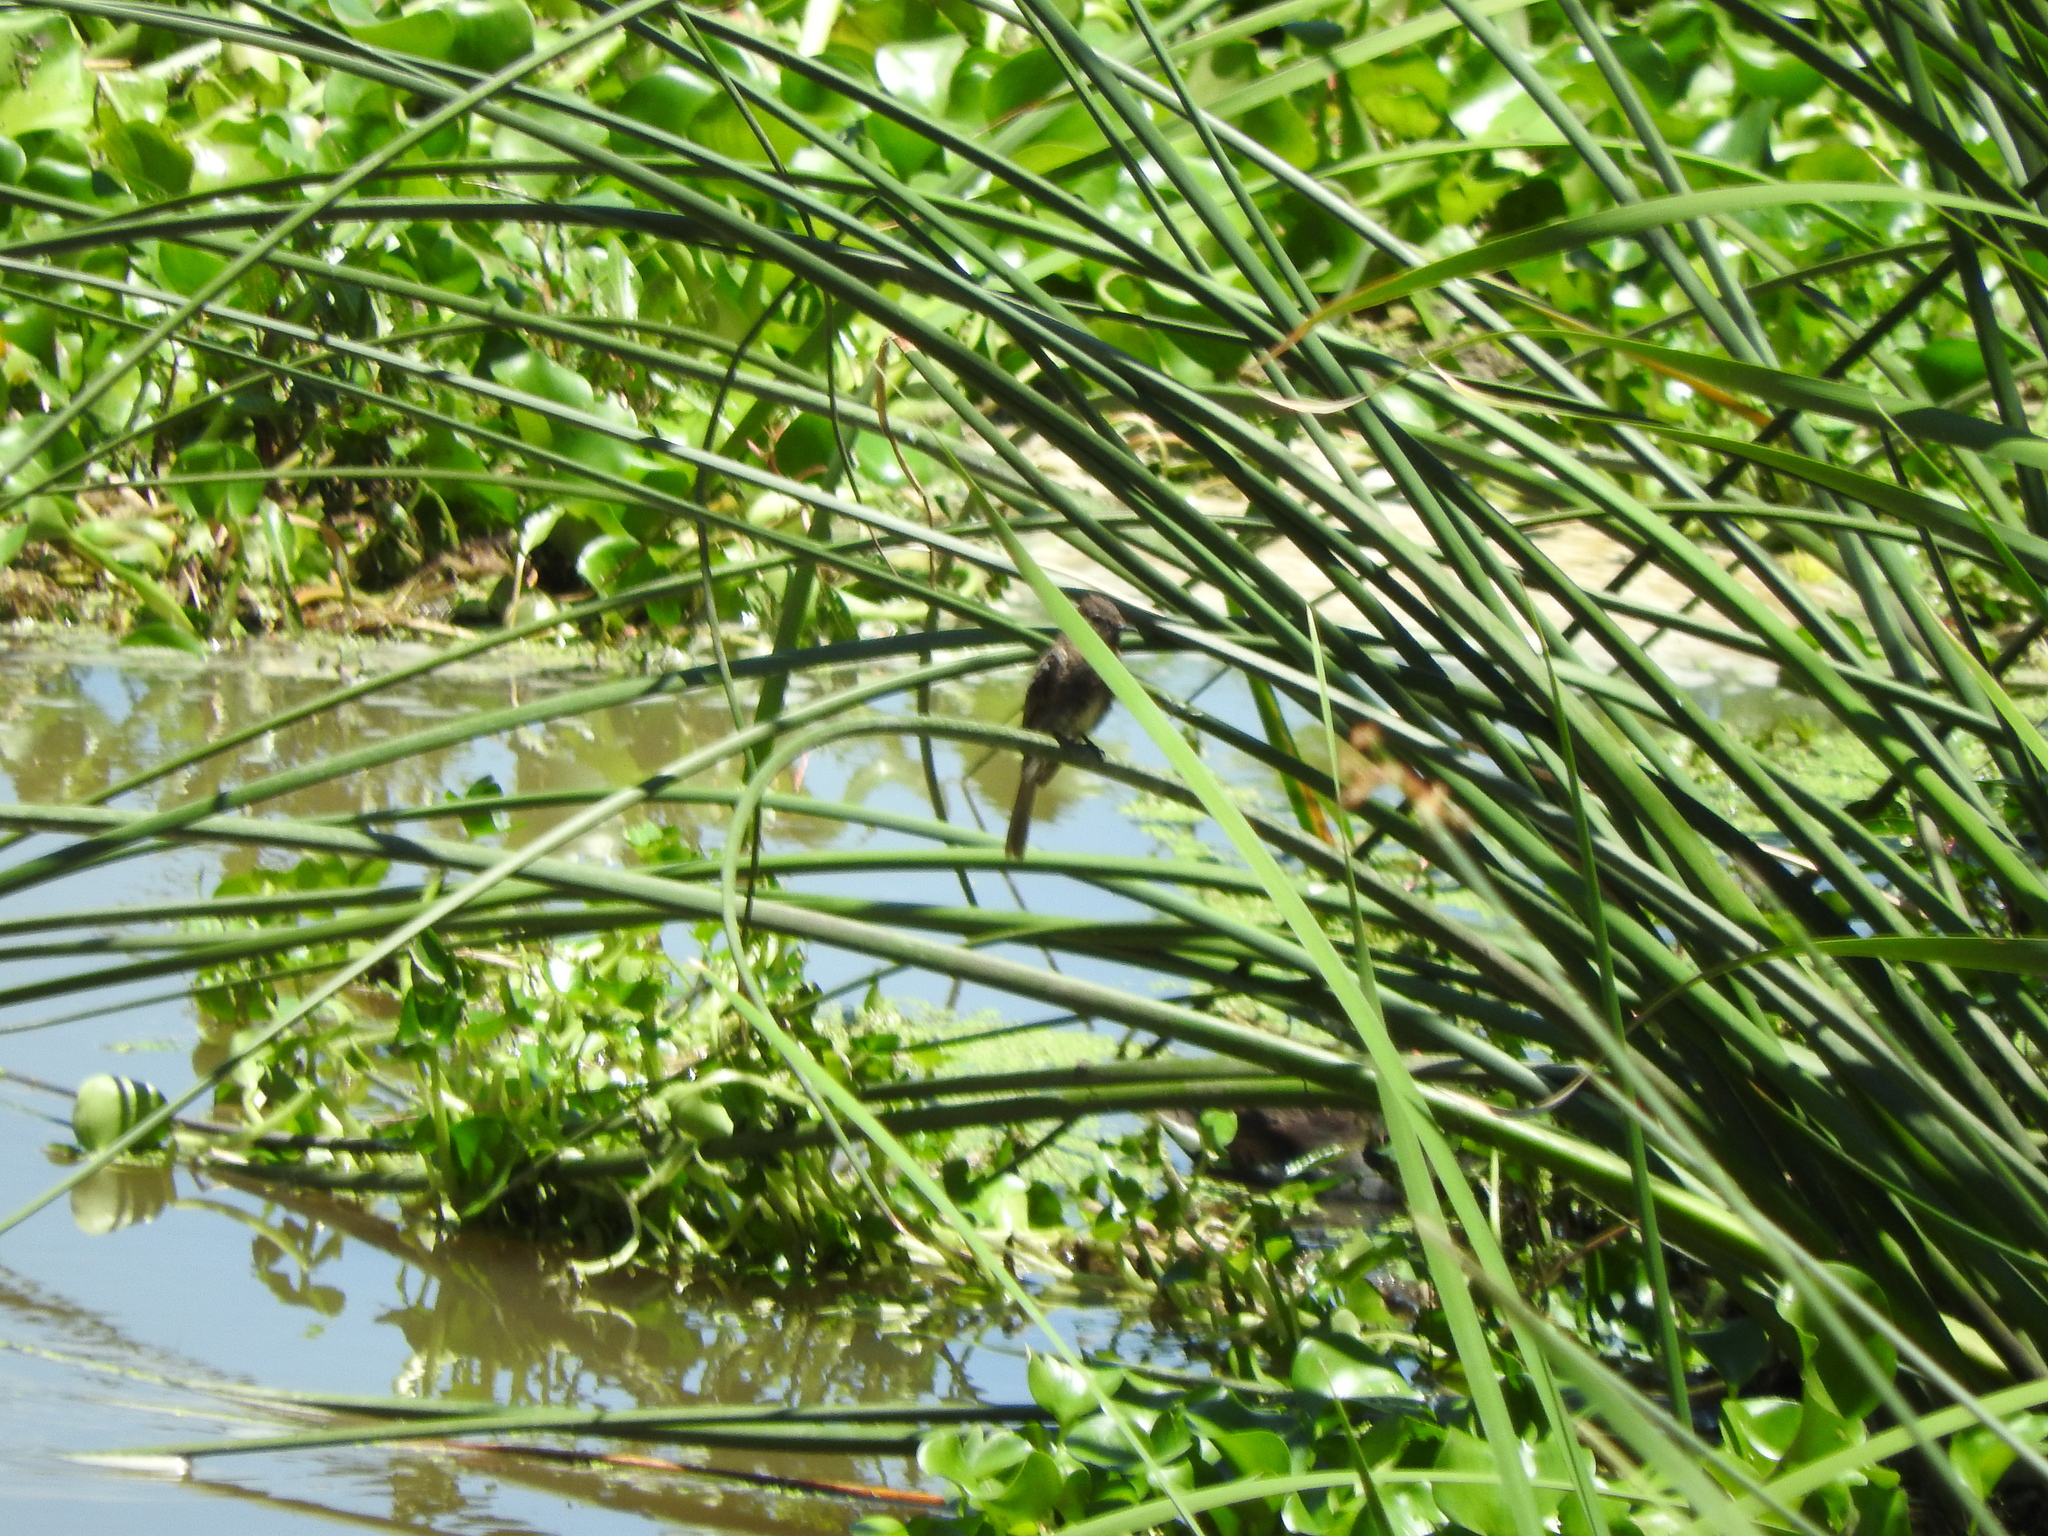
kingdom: Animalia
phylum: Chordata
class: Aves
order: Passeriformes
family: Tyrannidae
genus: Sayornis
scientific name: Sayornis nigricans
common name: Black phoebe
